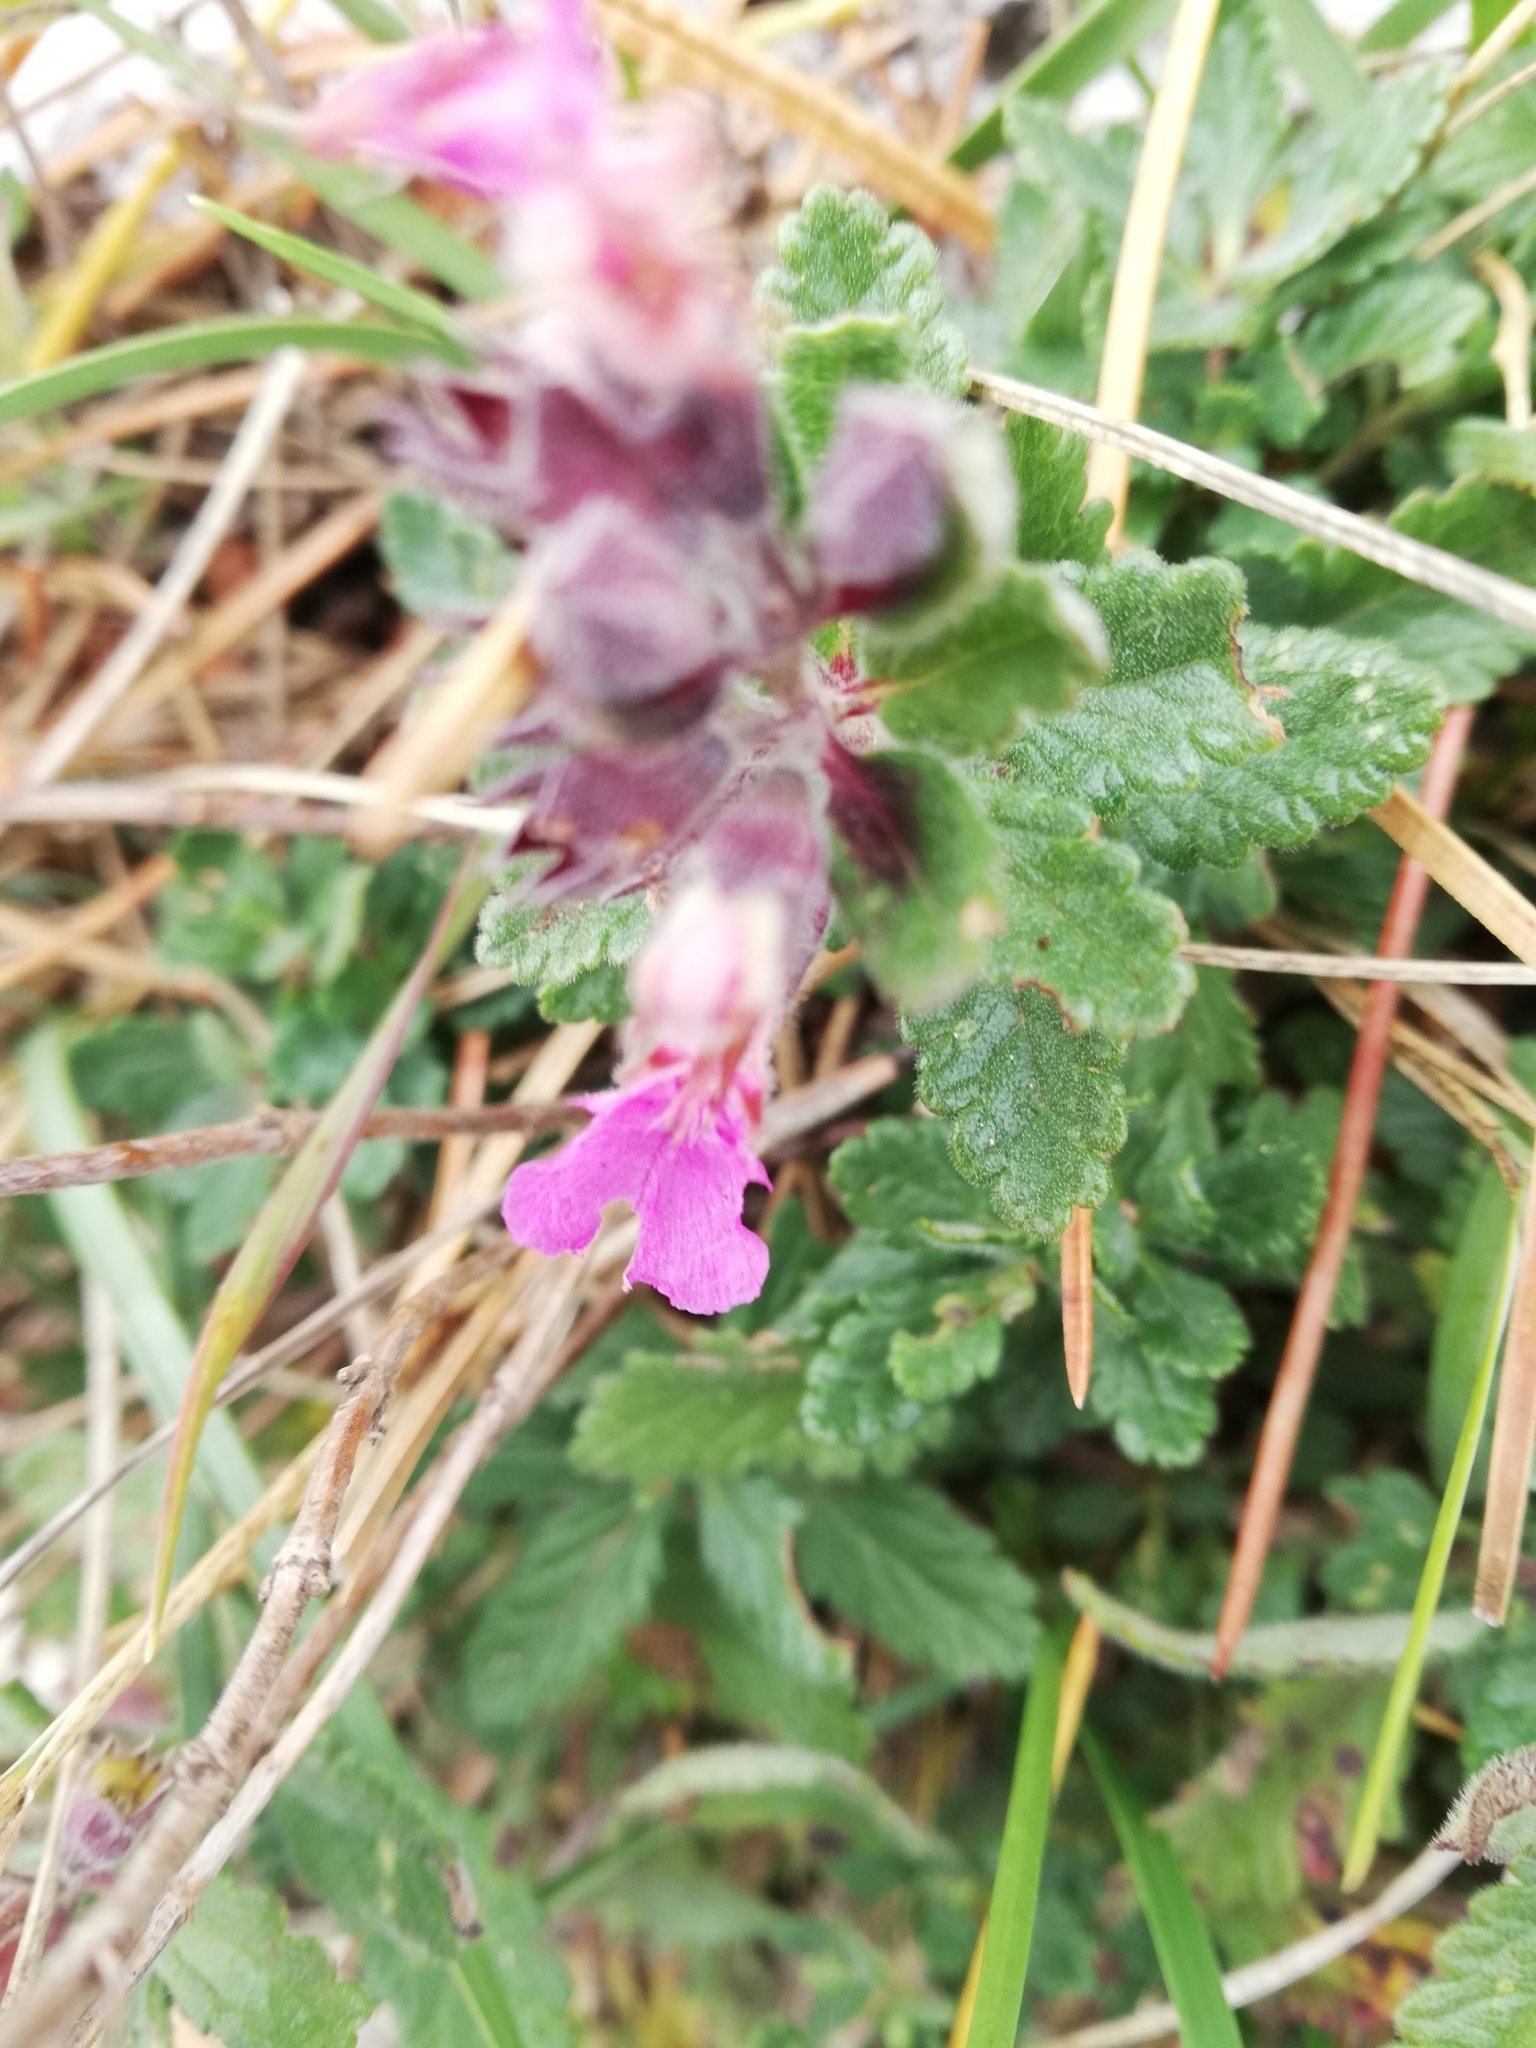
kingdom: Plantae
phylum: Tracheophyta
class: Magnoliopsida
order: Lamiales
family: Lamiaceae
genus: Teucrium
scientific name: Teucrium chamaedrys
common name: Wall germander
